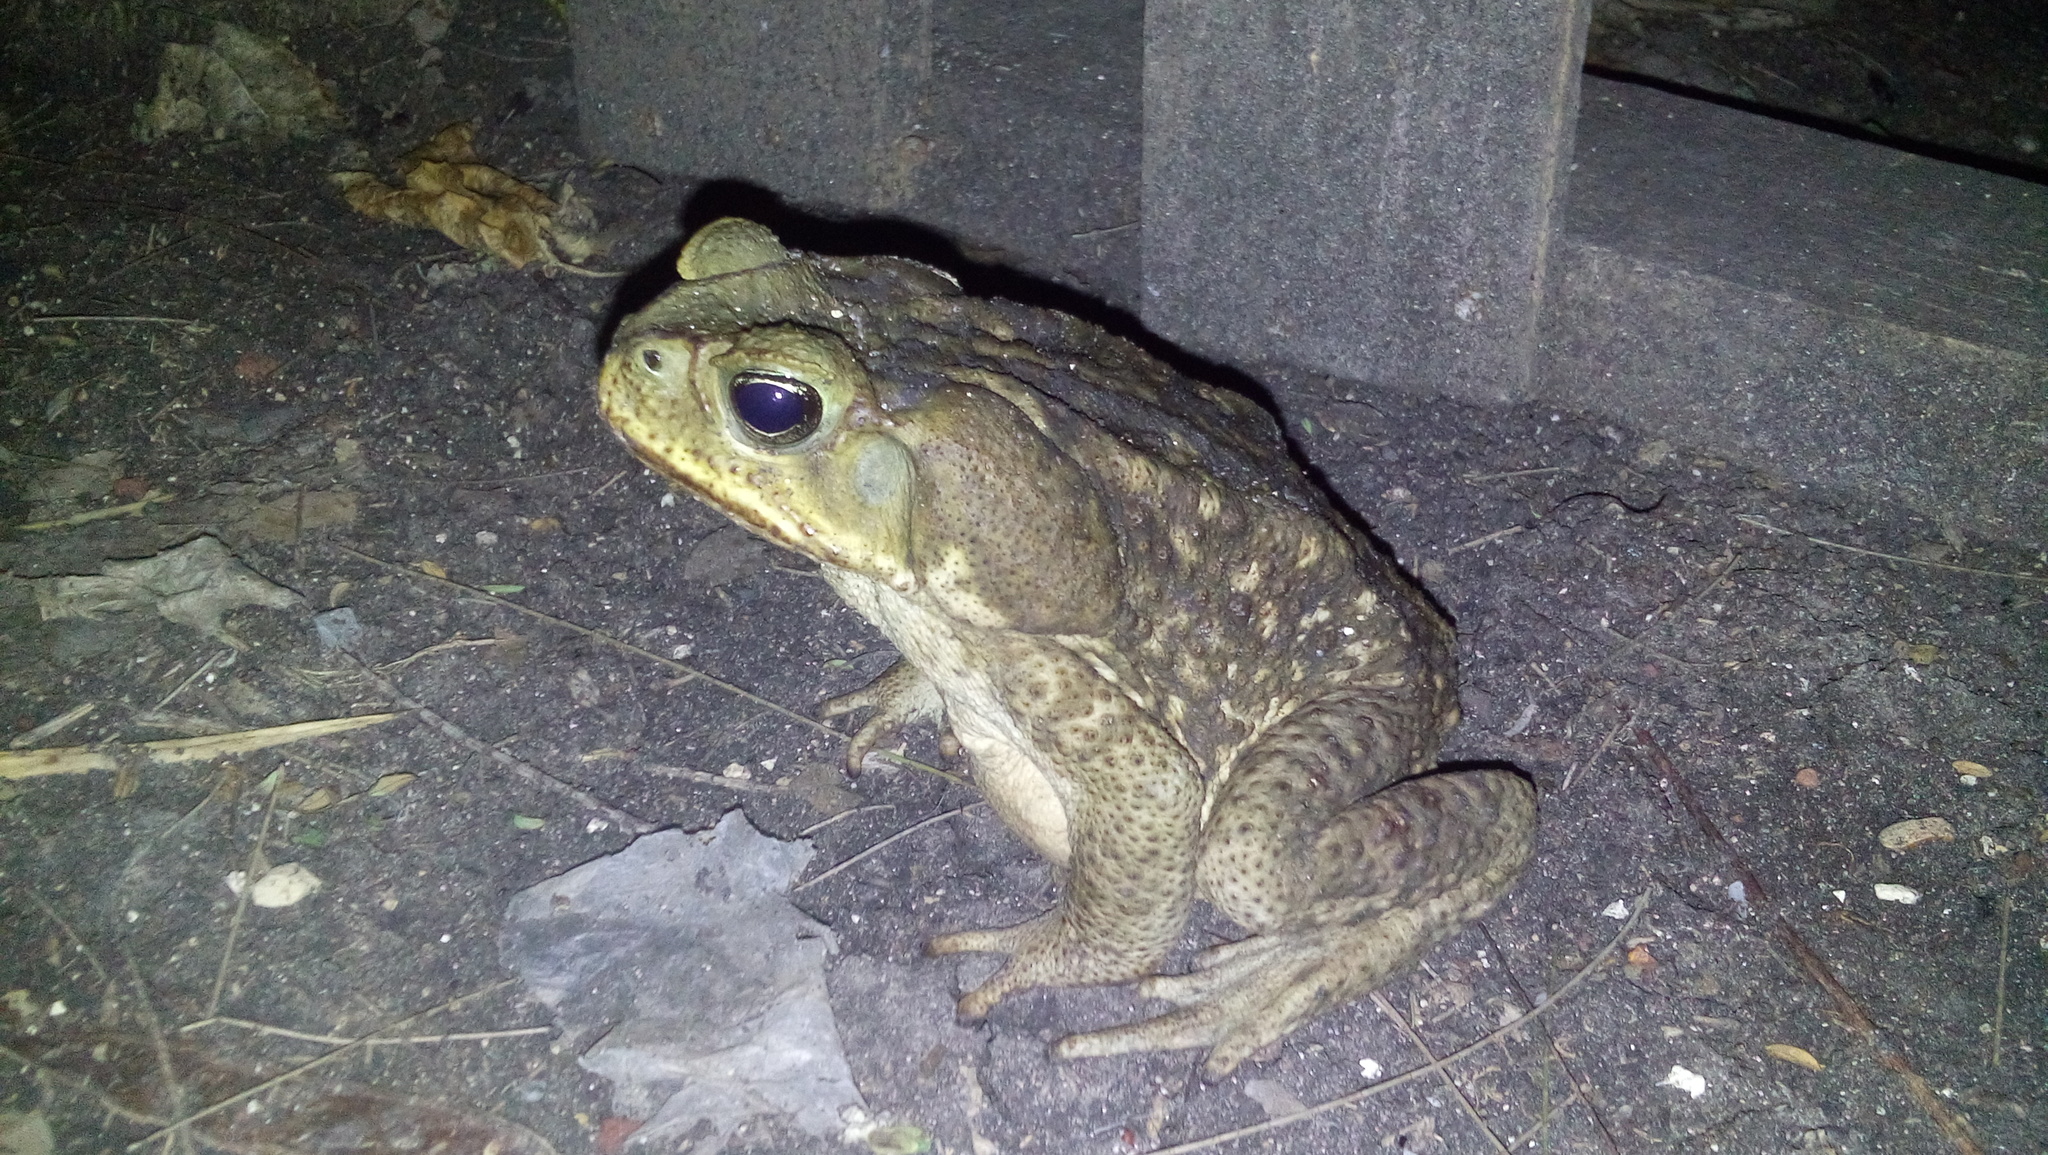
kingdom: Animalia
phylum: Chordata
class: Amphibia
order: Anura
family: Bufonidae
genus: Rhinella
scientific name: Rhinella horribilis
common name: Mesoamerican cane toad
